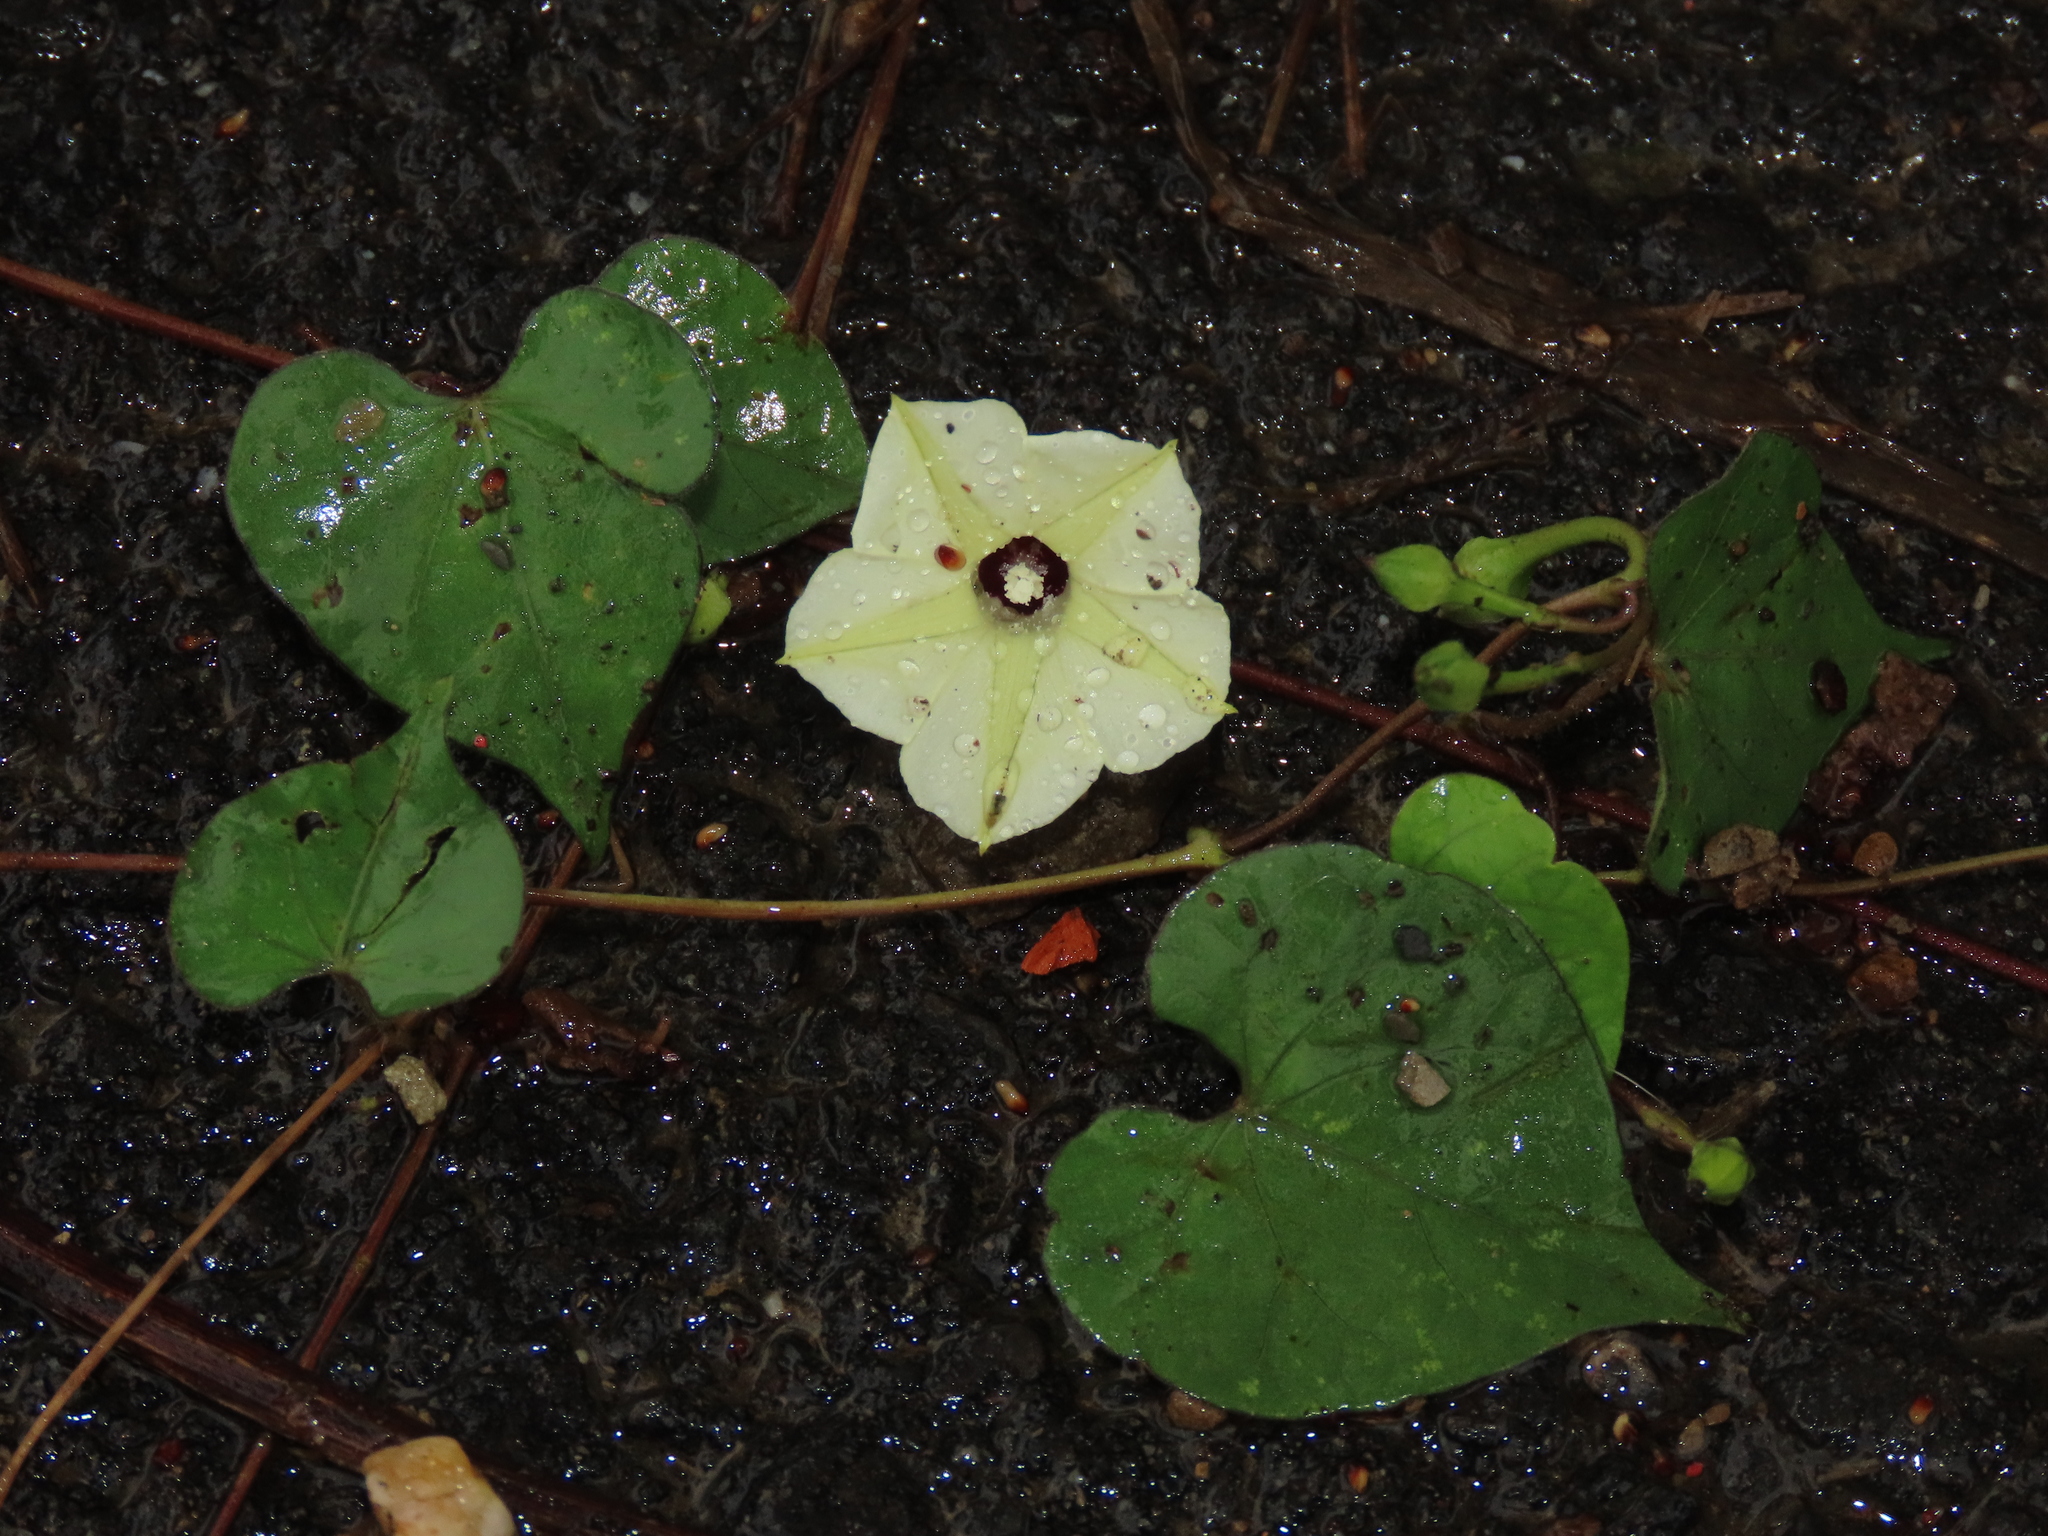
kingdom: Plantae
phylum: Tracheophyta
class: Magnoliopsida
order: Solanales
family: Convolvulaceae
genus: Ipomoea
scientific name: Ipomoea obscura
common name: Obscure morning-glory
